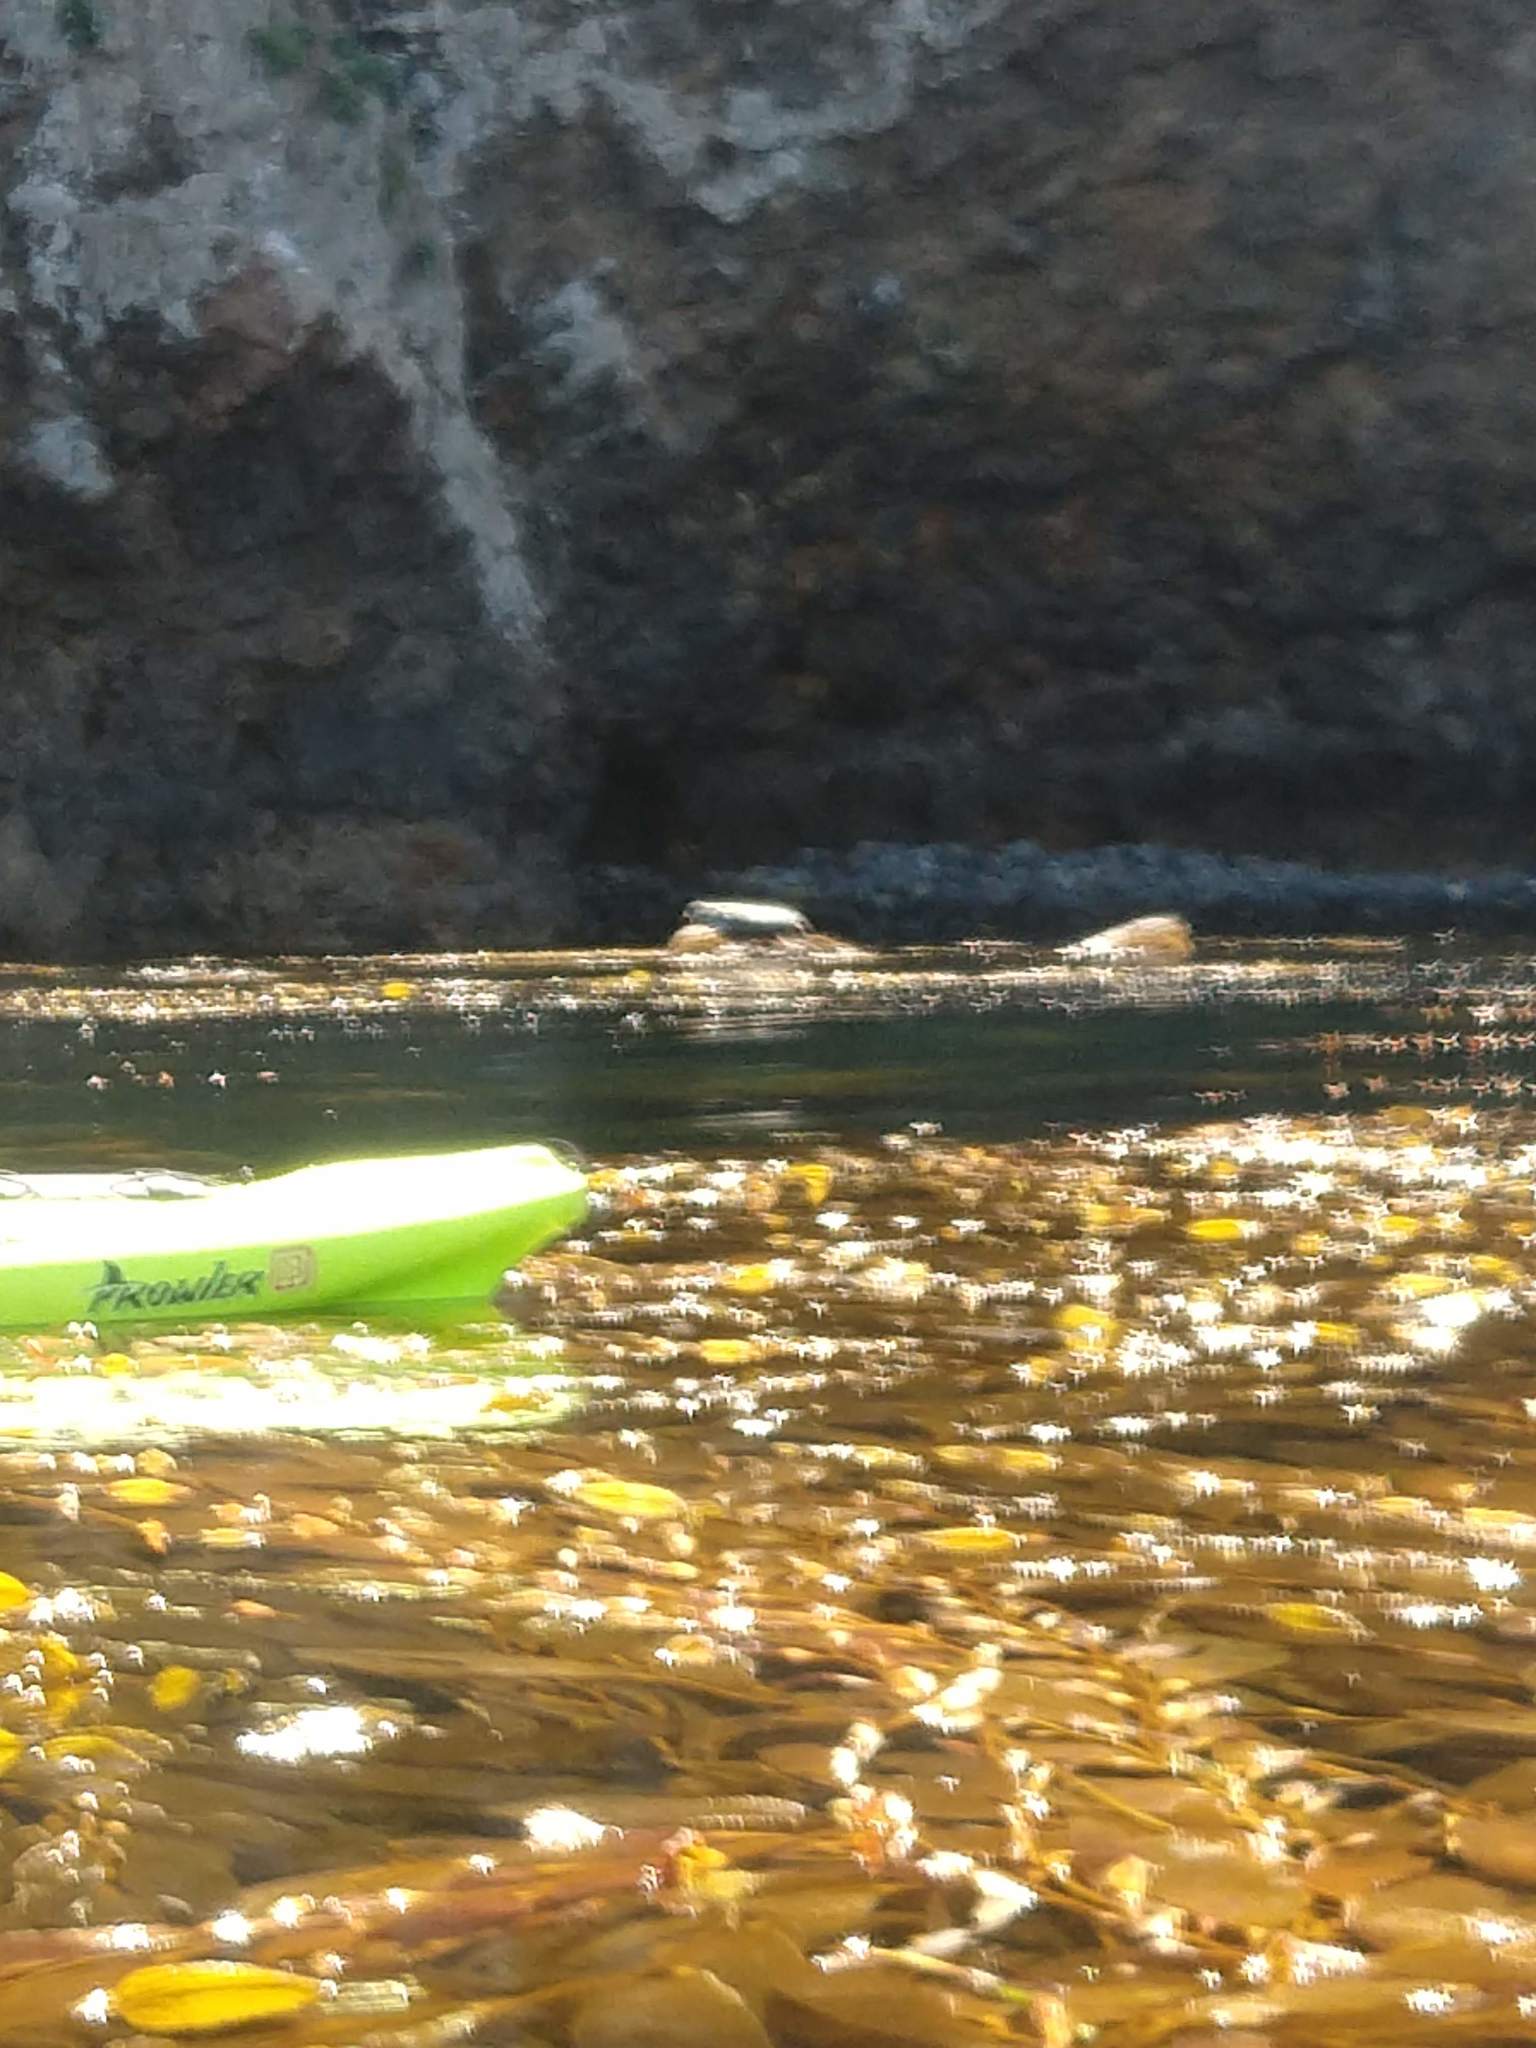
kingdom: Animalia
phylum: Chordata
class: Mammalia
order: Carnivora
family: Phocidae
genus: Phoca
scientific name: Phoca vitulina
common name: Harbor seal
